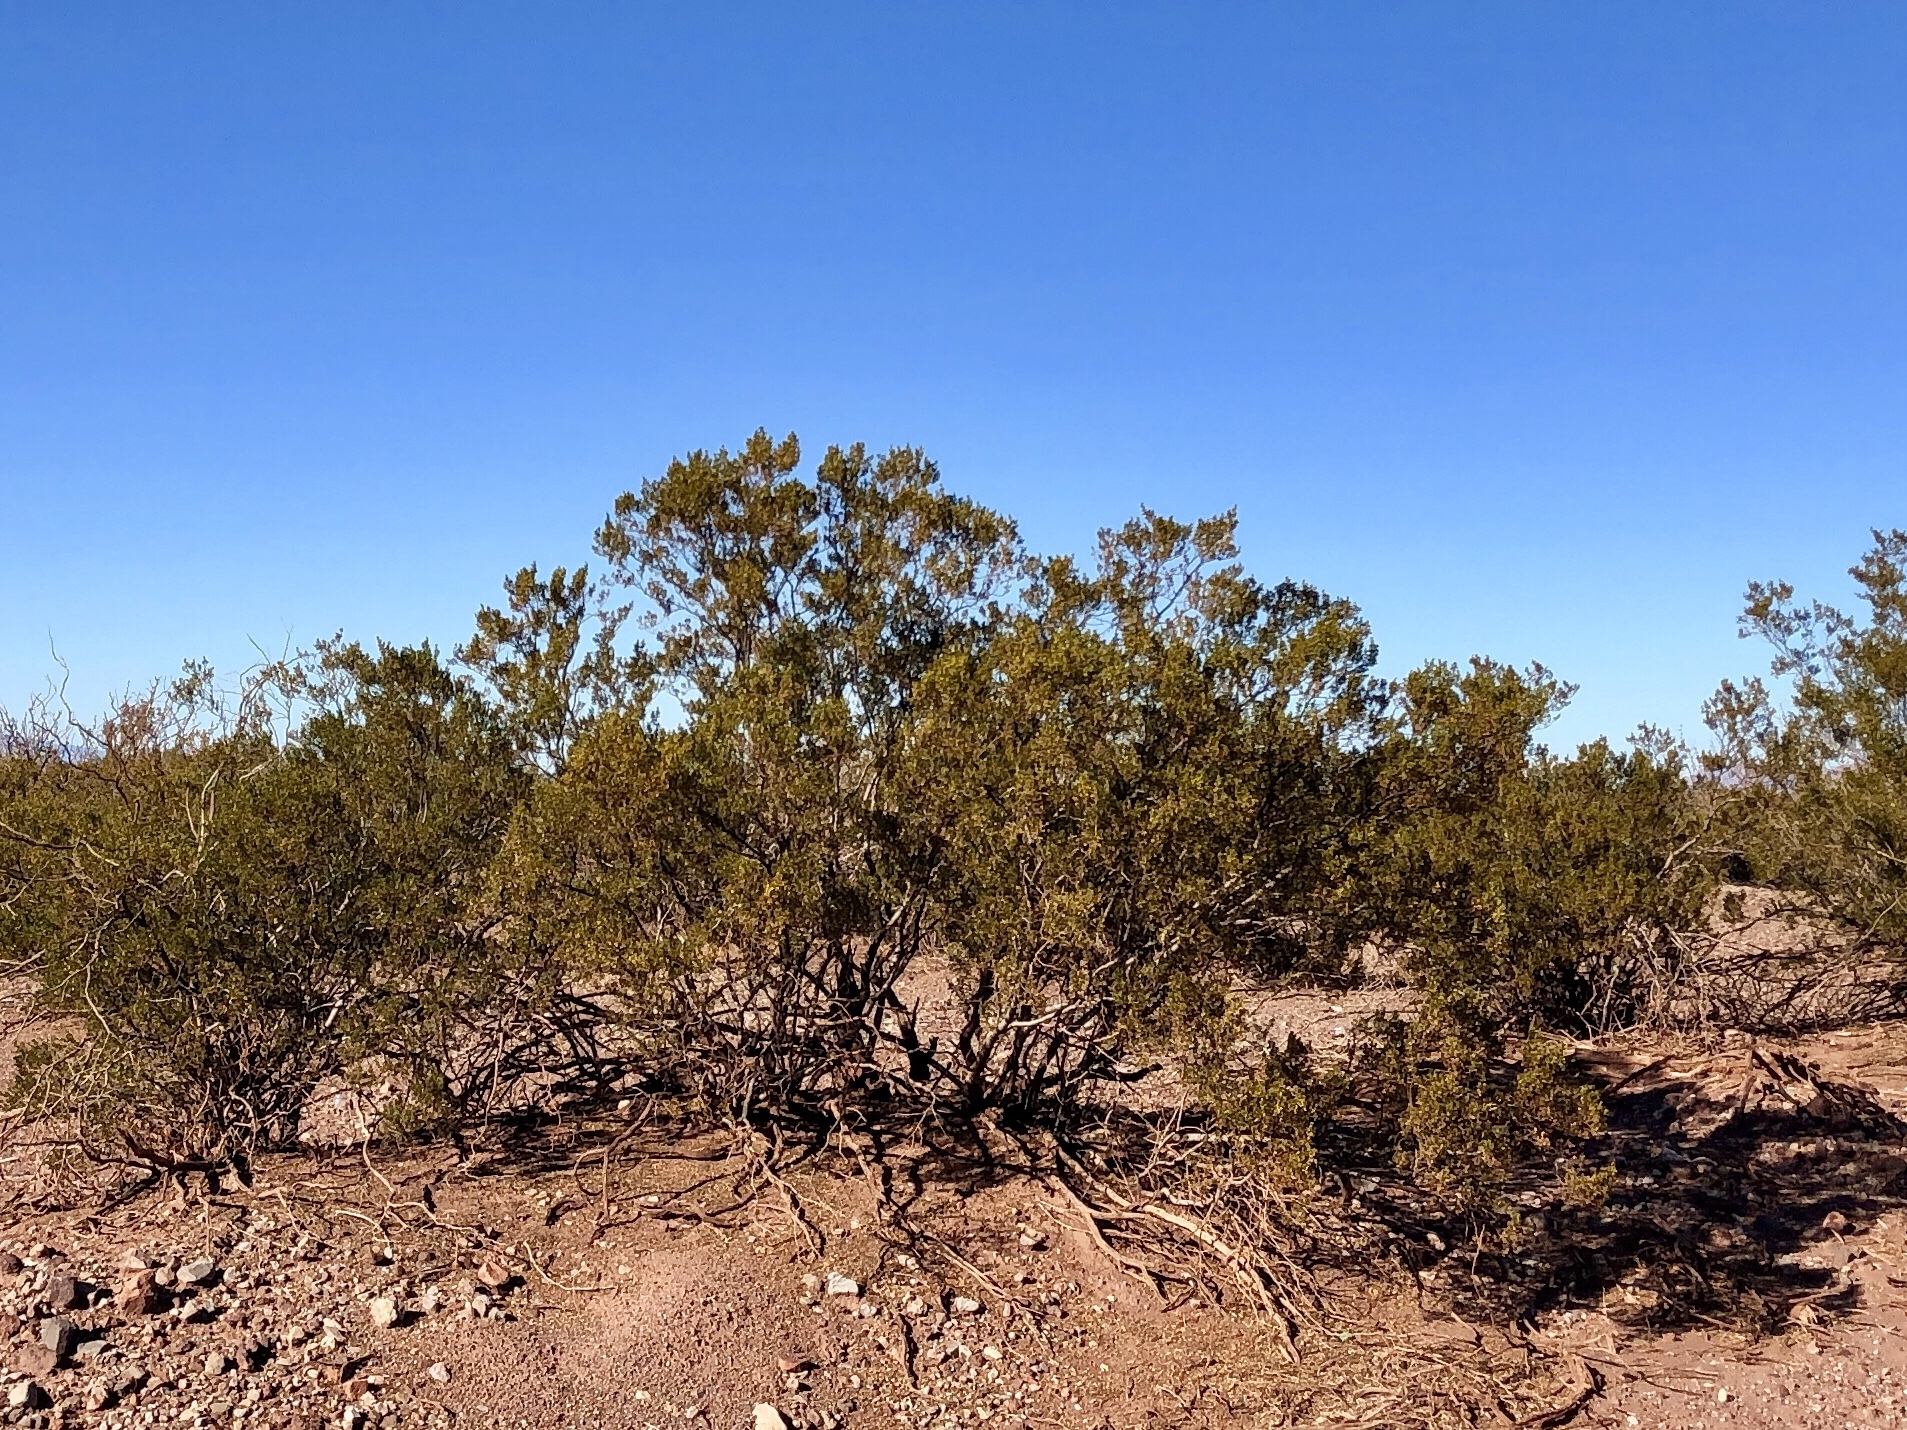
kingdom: Plantae
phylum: Tracheophyta
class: Magnoliopsida
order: Zygophyllales
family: Zygophyllaceae
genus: Larrea
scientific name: Larrea tridentata
